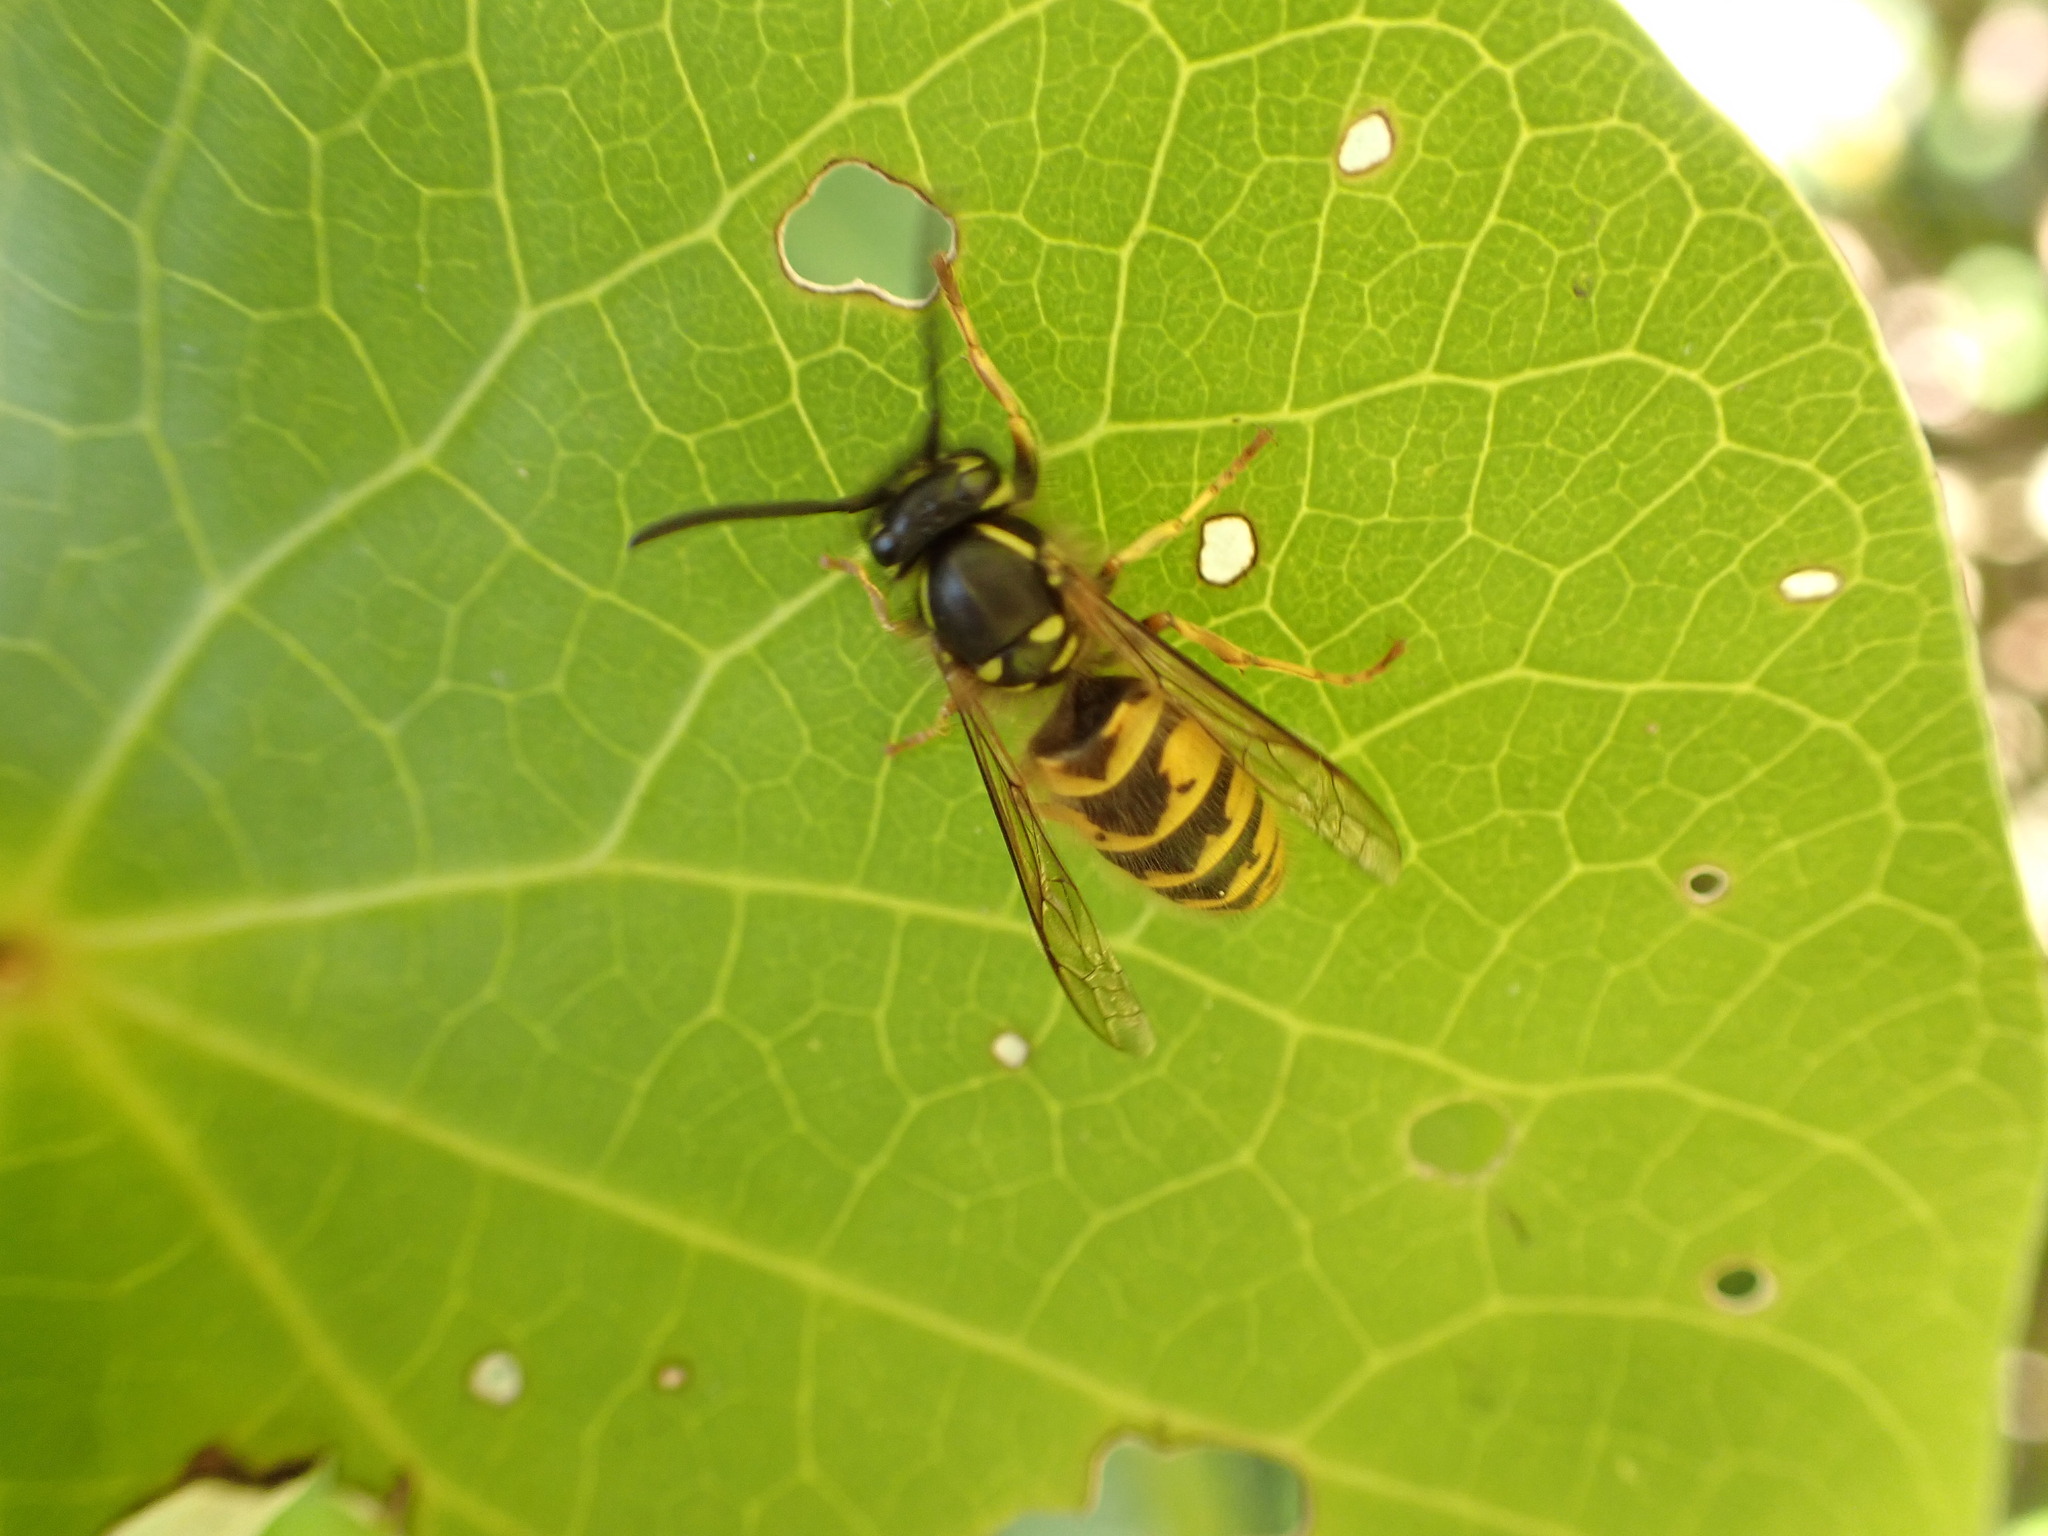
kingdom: Animalia
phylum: Arthropoda
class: Insecta
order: Hymenoptera
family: Vespidae
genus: Vespula
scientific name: Vespula vulgaris
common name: Common wasp
